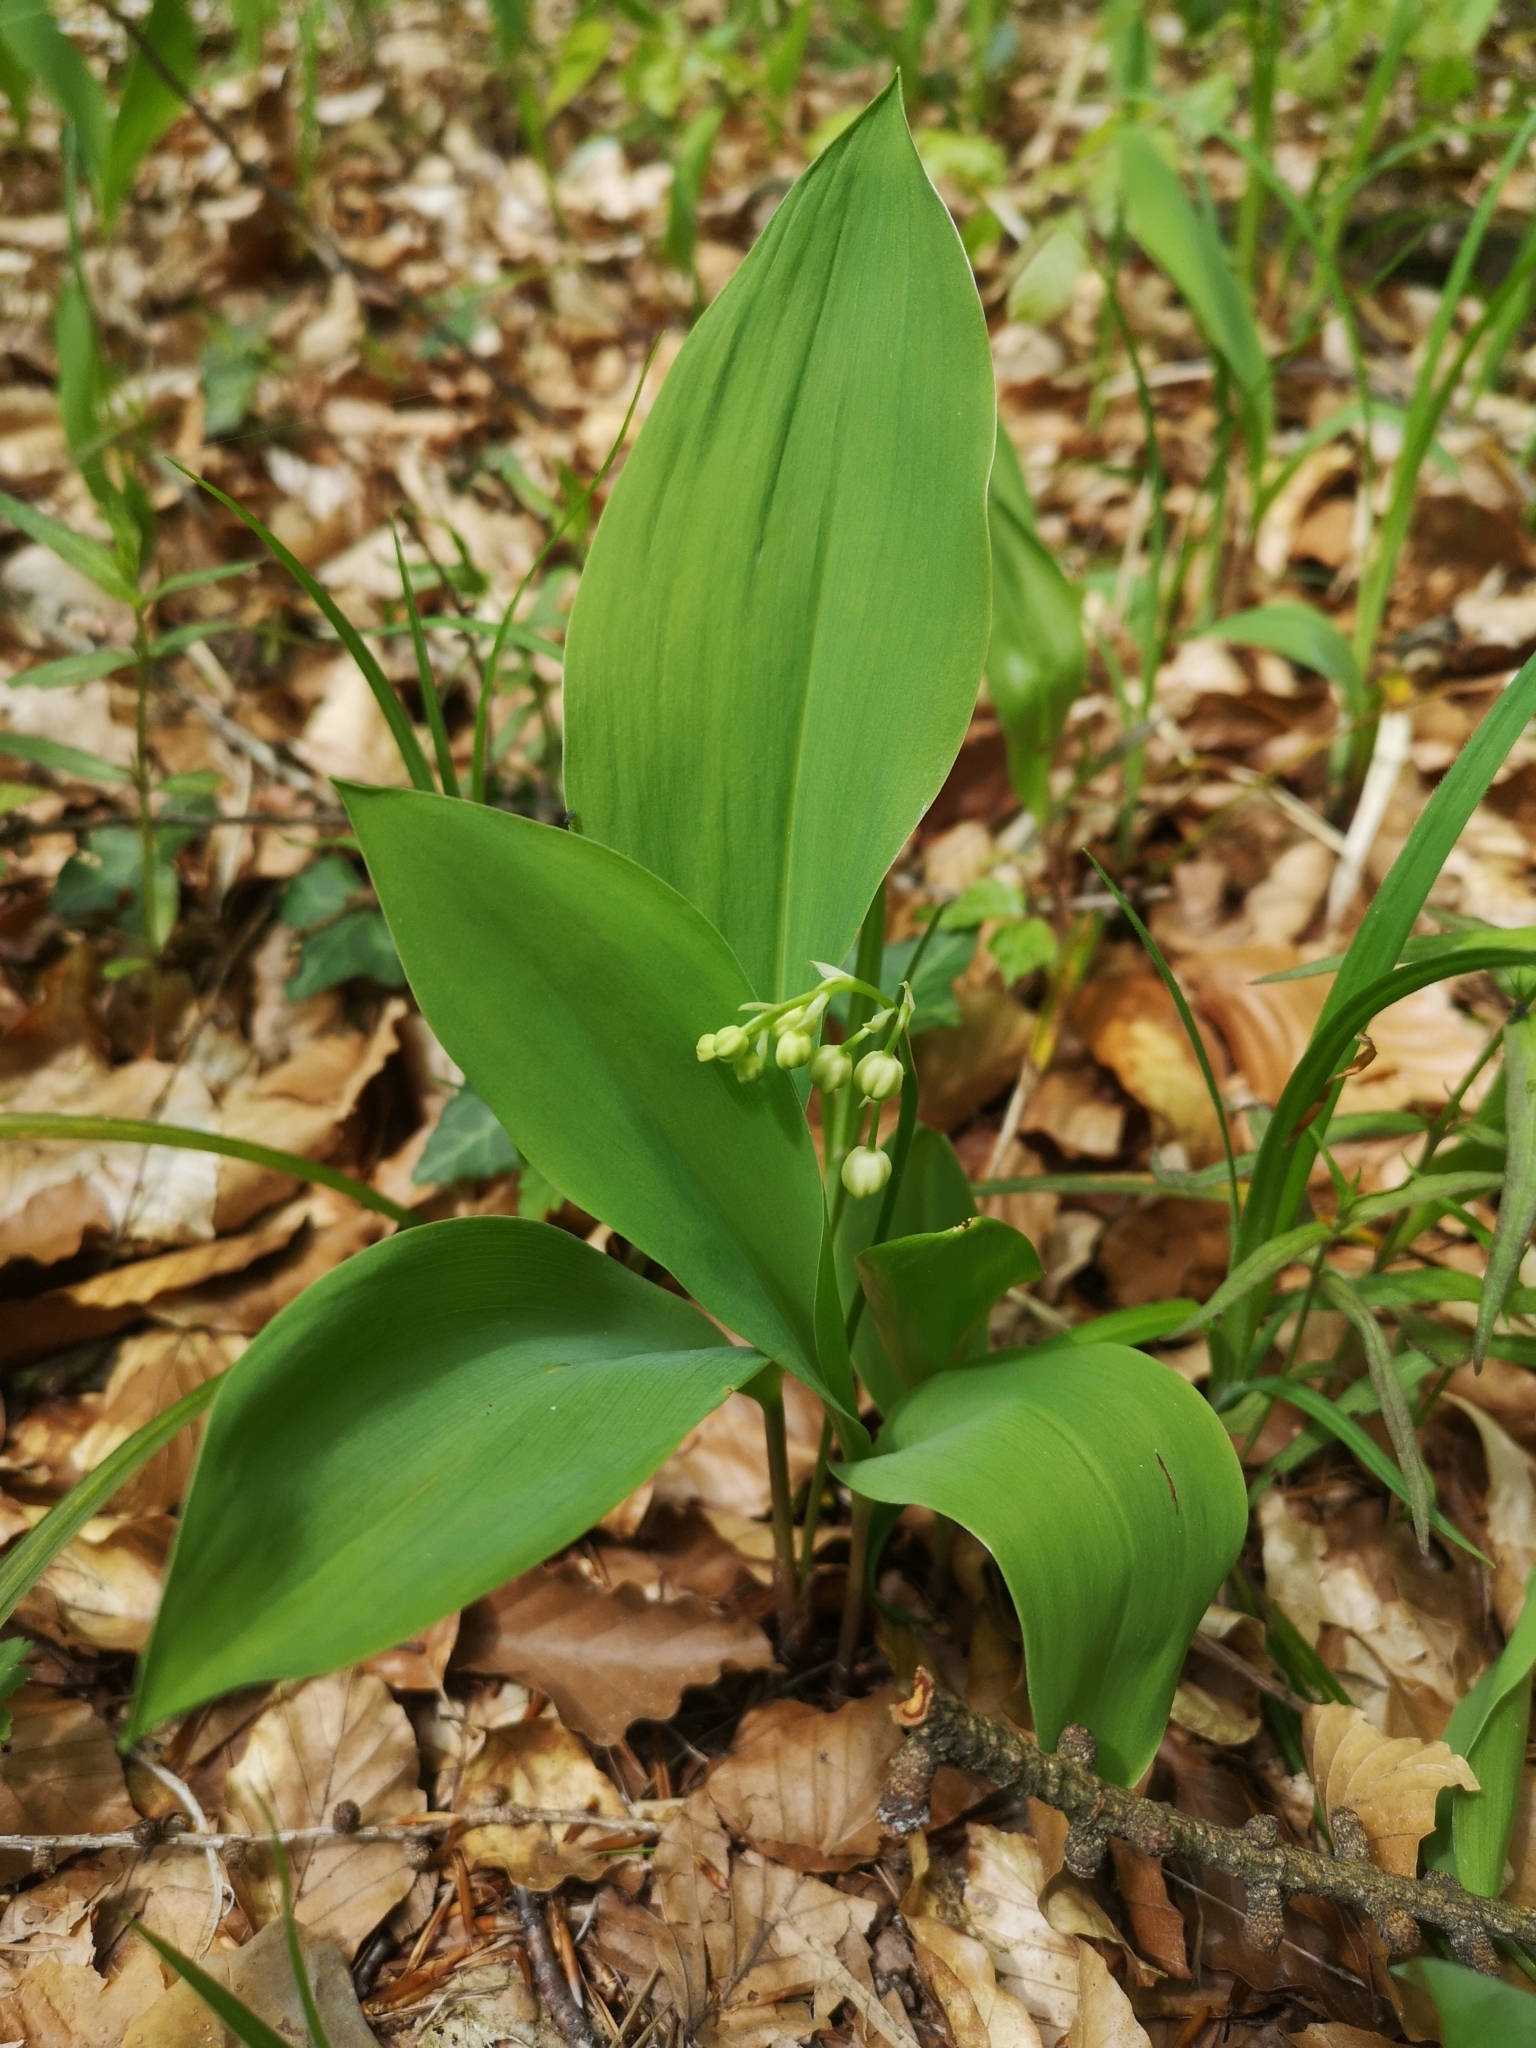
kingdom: Plantae
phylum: Tracheophyta
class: Liliopsida
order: Asparagales
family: Asparagaceae
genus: Convallaria
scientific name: Convallaria majalis
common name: Lily-of-the-valley
